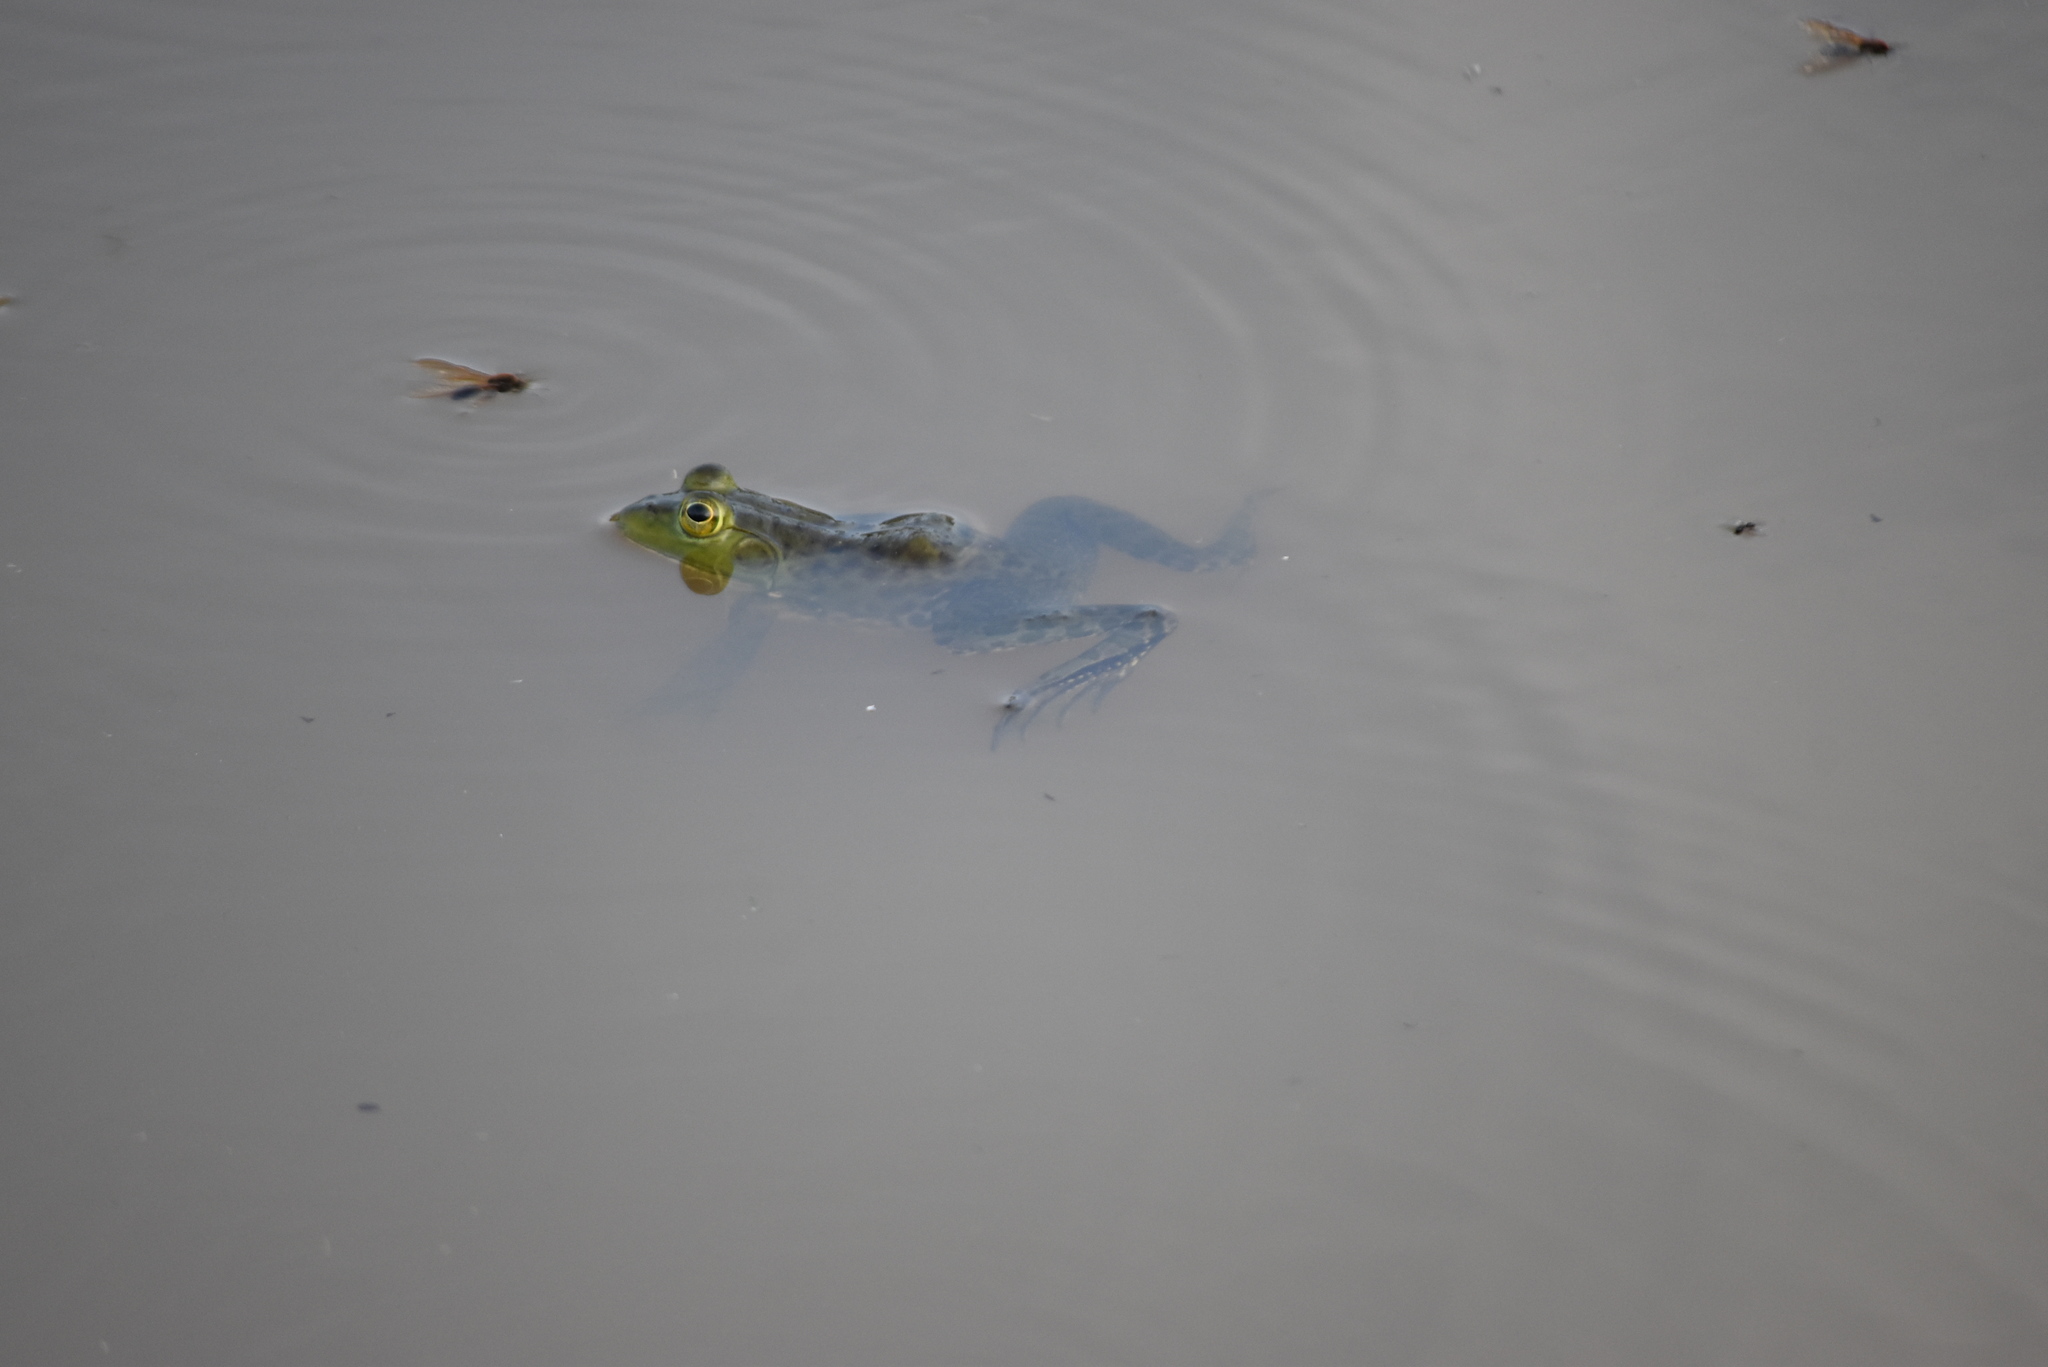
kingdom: Animalia
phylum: Chordata
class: Amphibia
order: Anura
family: Ranidae
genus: Lithobates
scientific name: Lithobates catesbeianus
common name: American bullfrog
